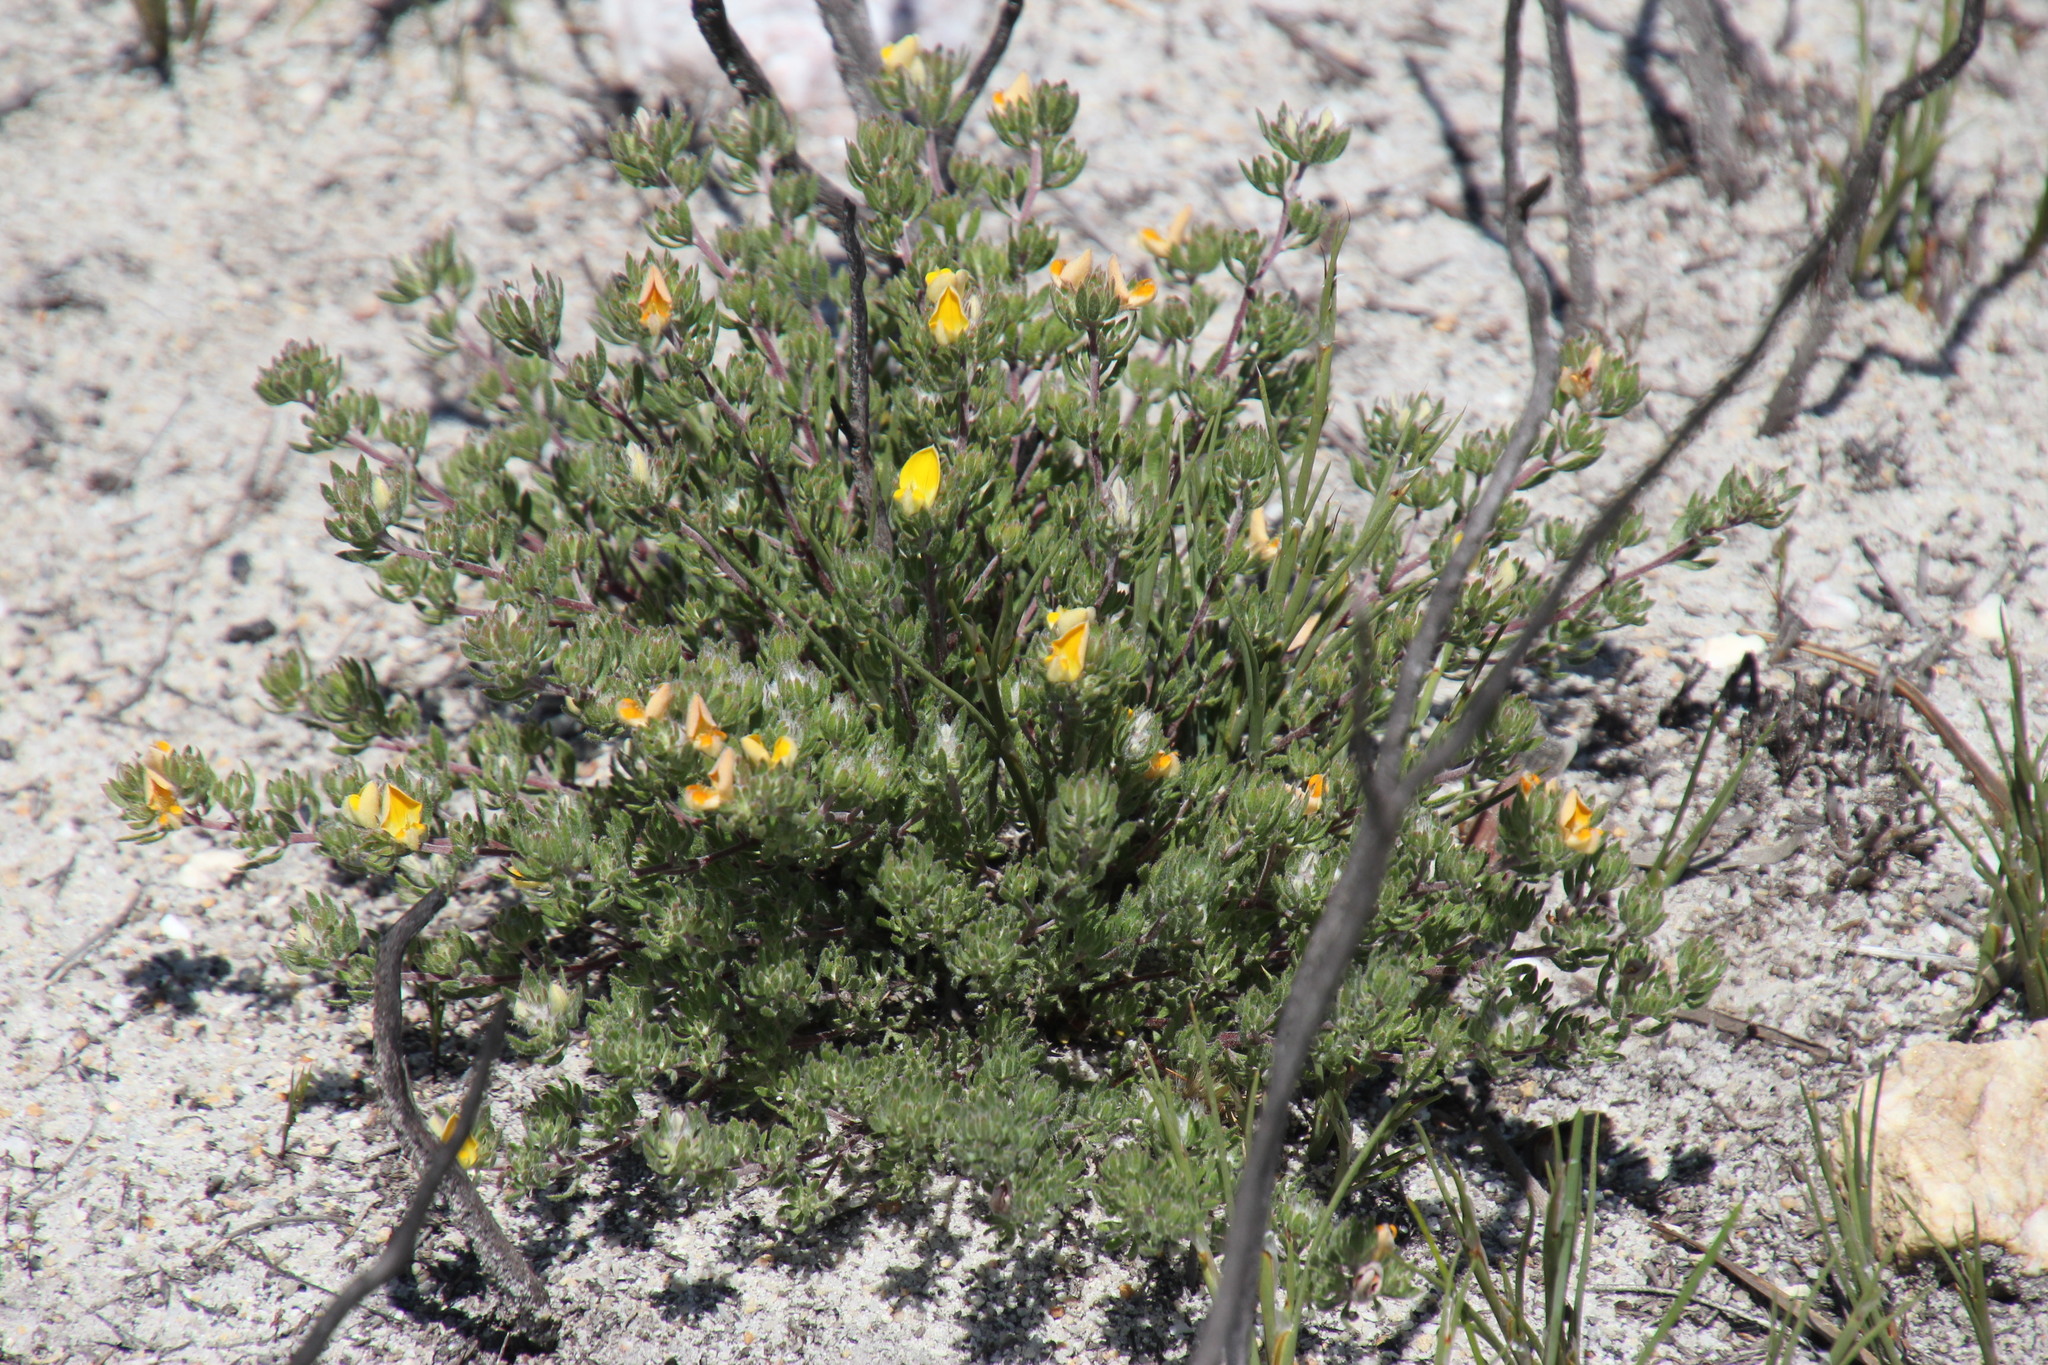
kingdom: Plantae
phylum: Tracheophyta
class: Magnoliopsida
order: Fabales
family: Fabaceae
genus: Aspalathus
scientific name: Aspalathus stenophylla
